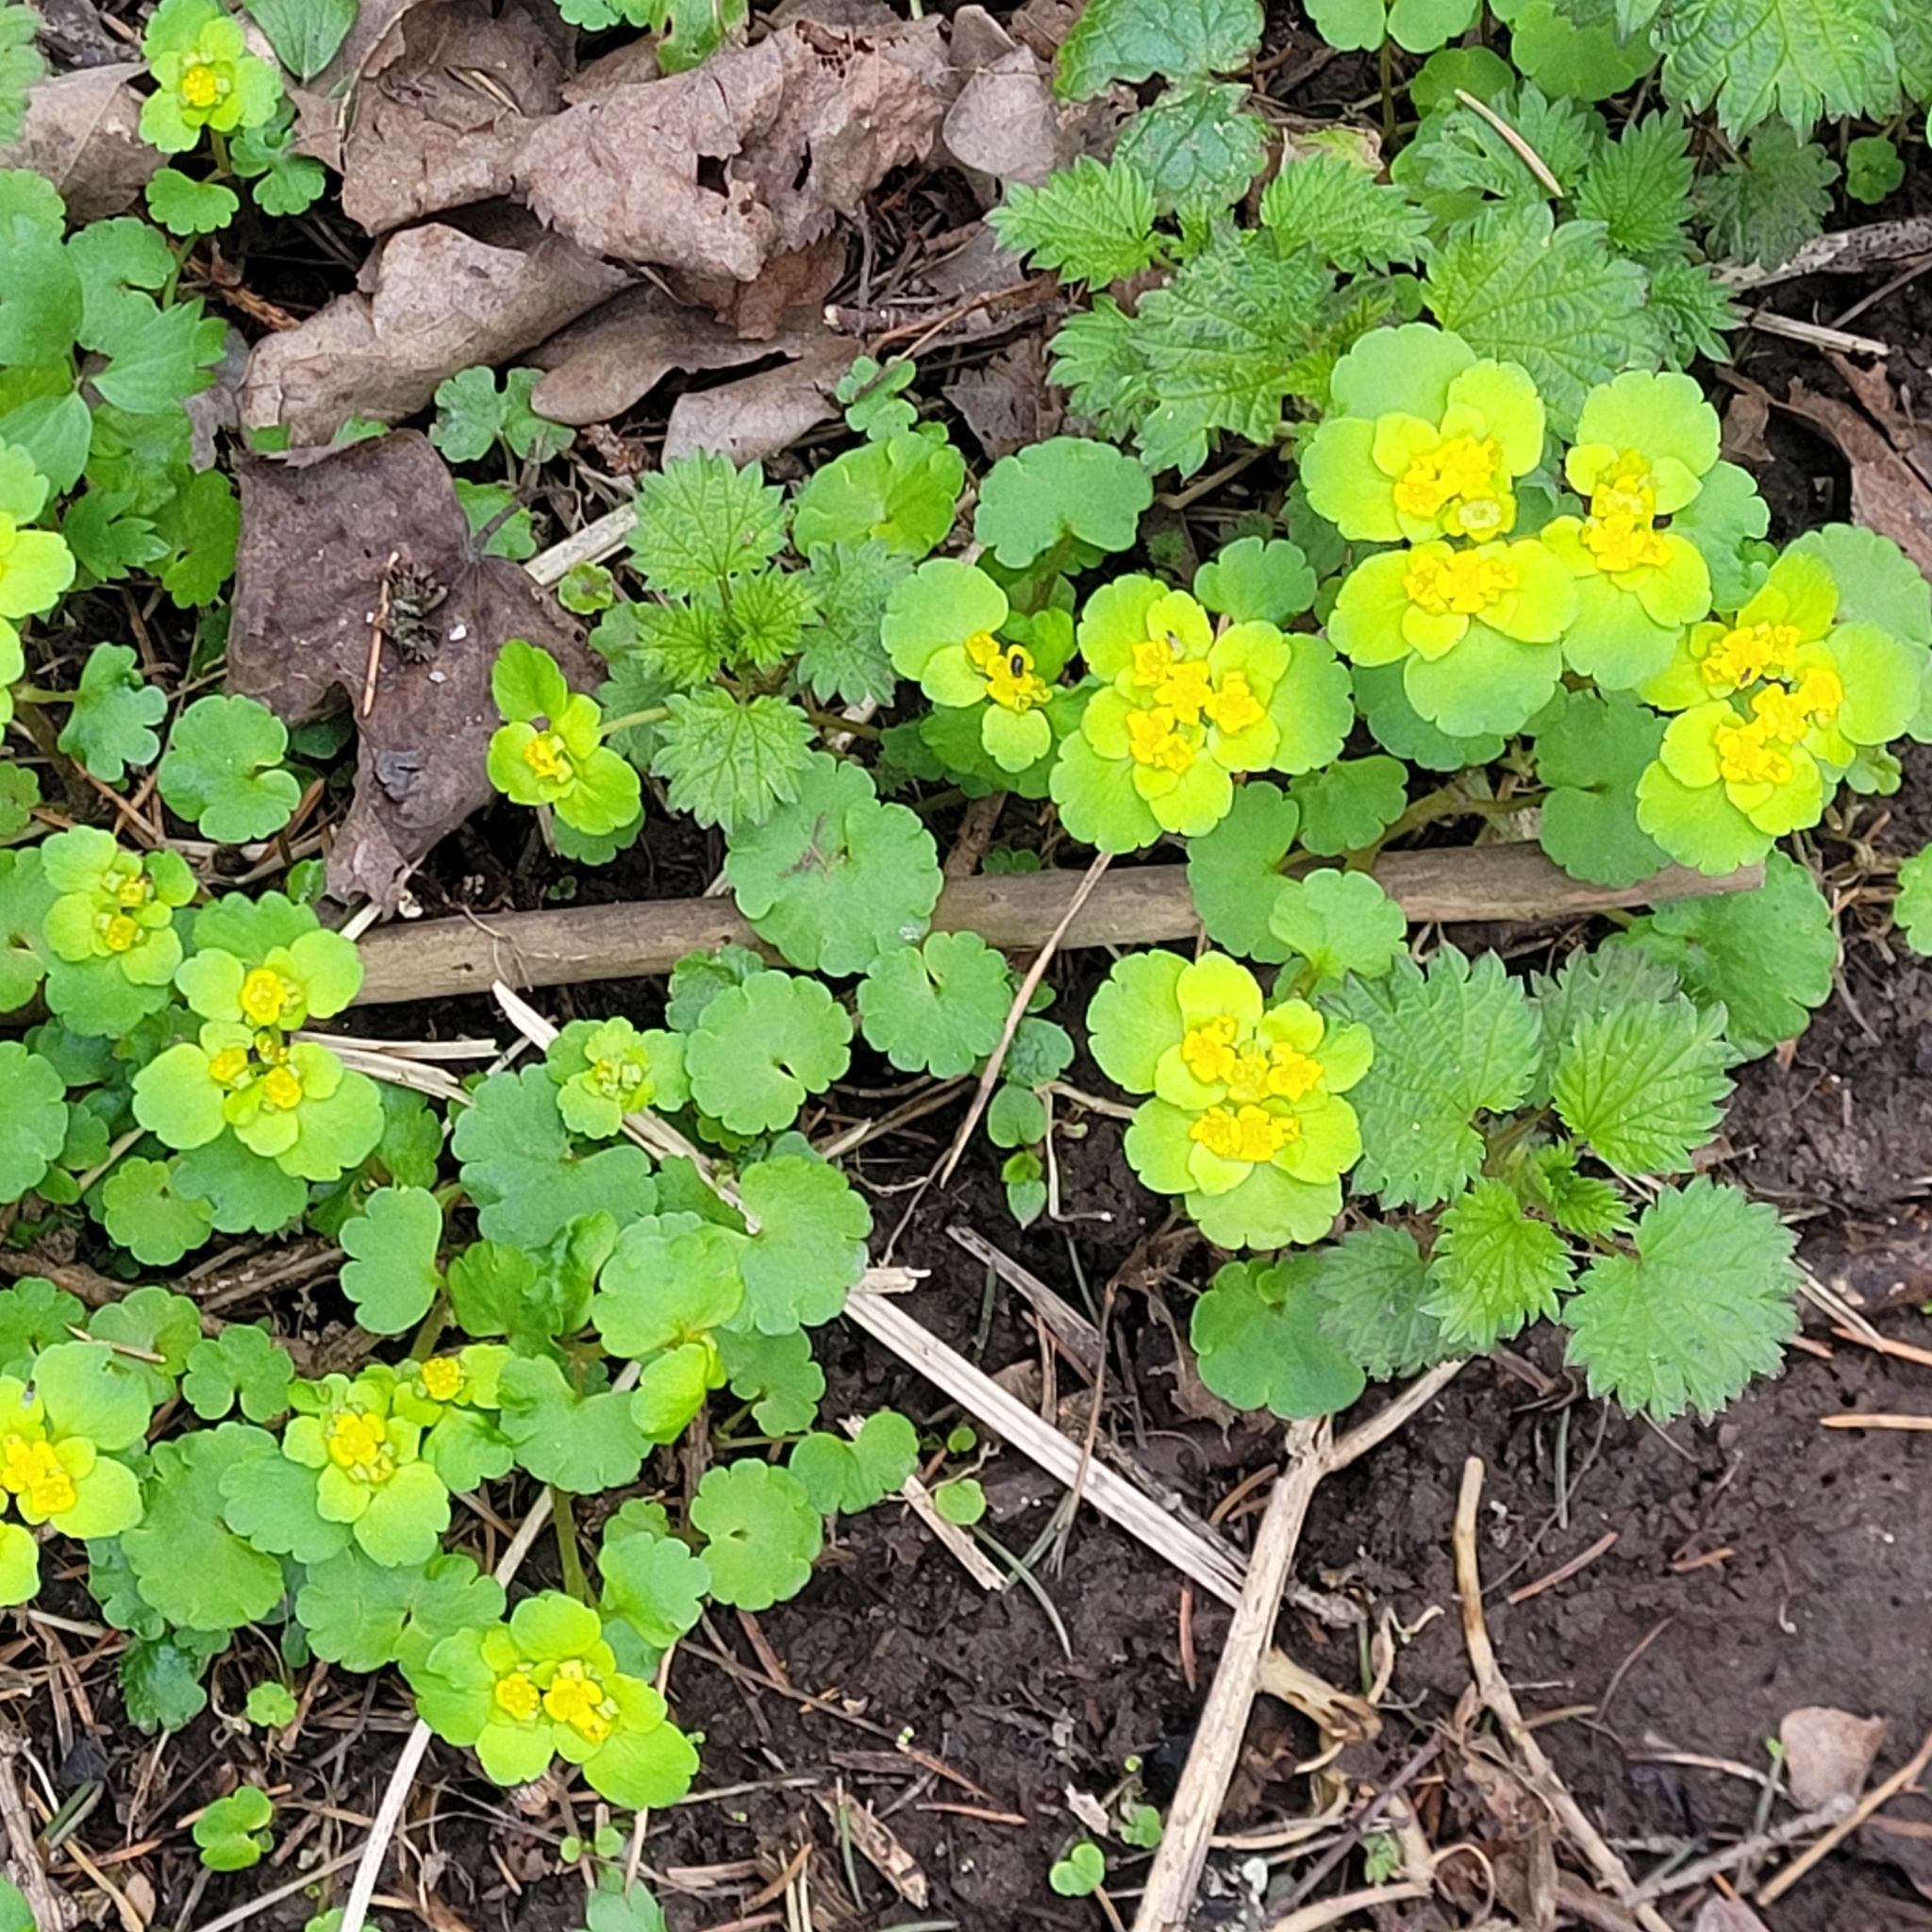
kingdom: Plantae
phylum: Tracheophyta
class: Magnoliopsida
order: Saxifragales
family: Saxifragaceae
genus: Chrysosplenium
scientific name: Chrysosplenium alternifolium
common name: Alternate-leaved golden-saxifrage
